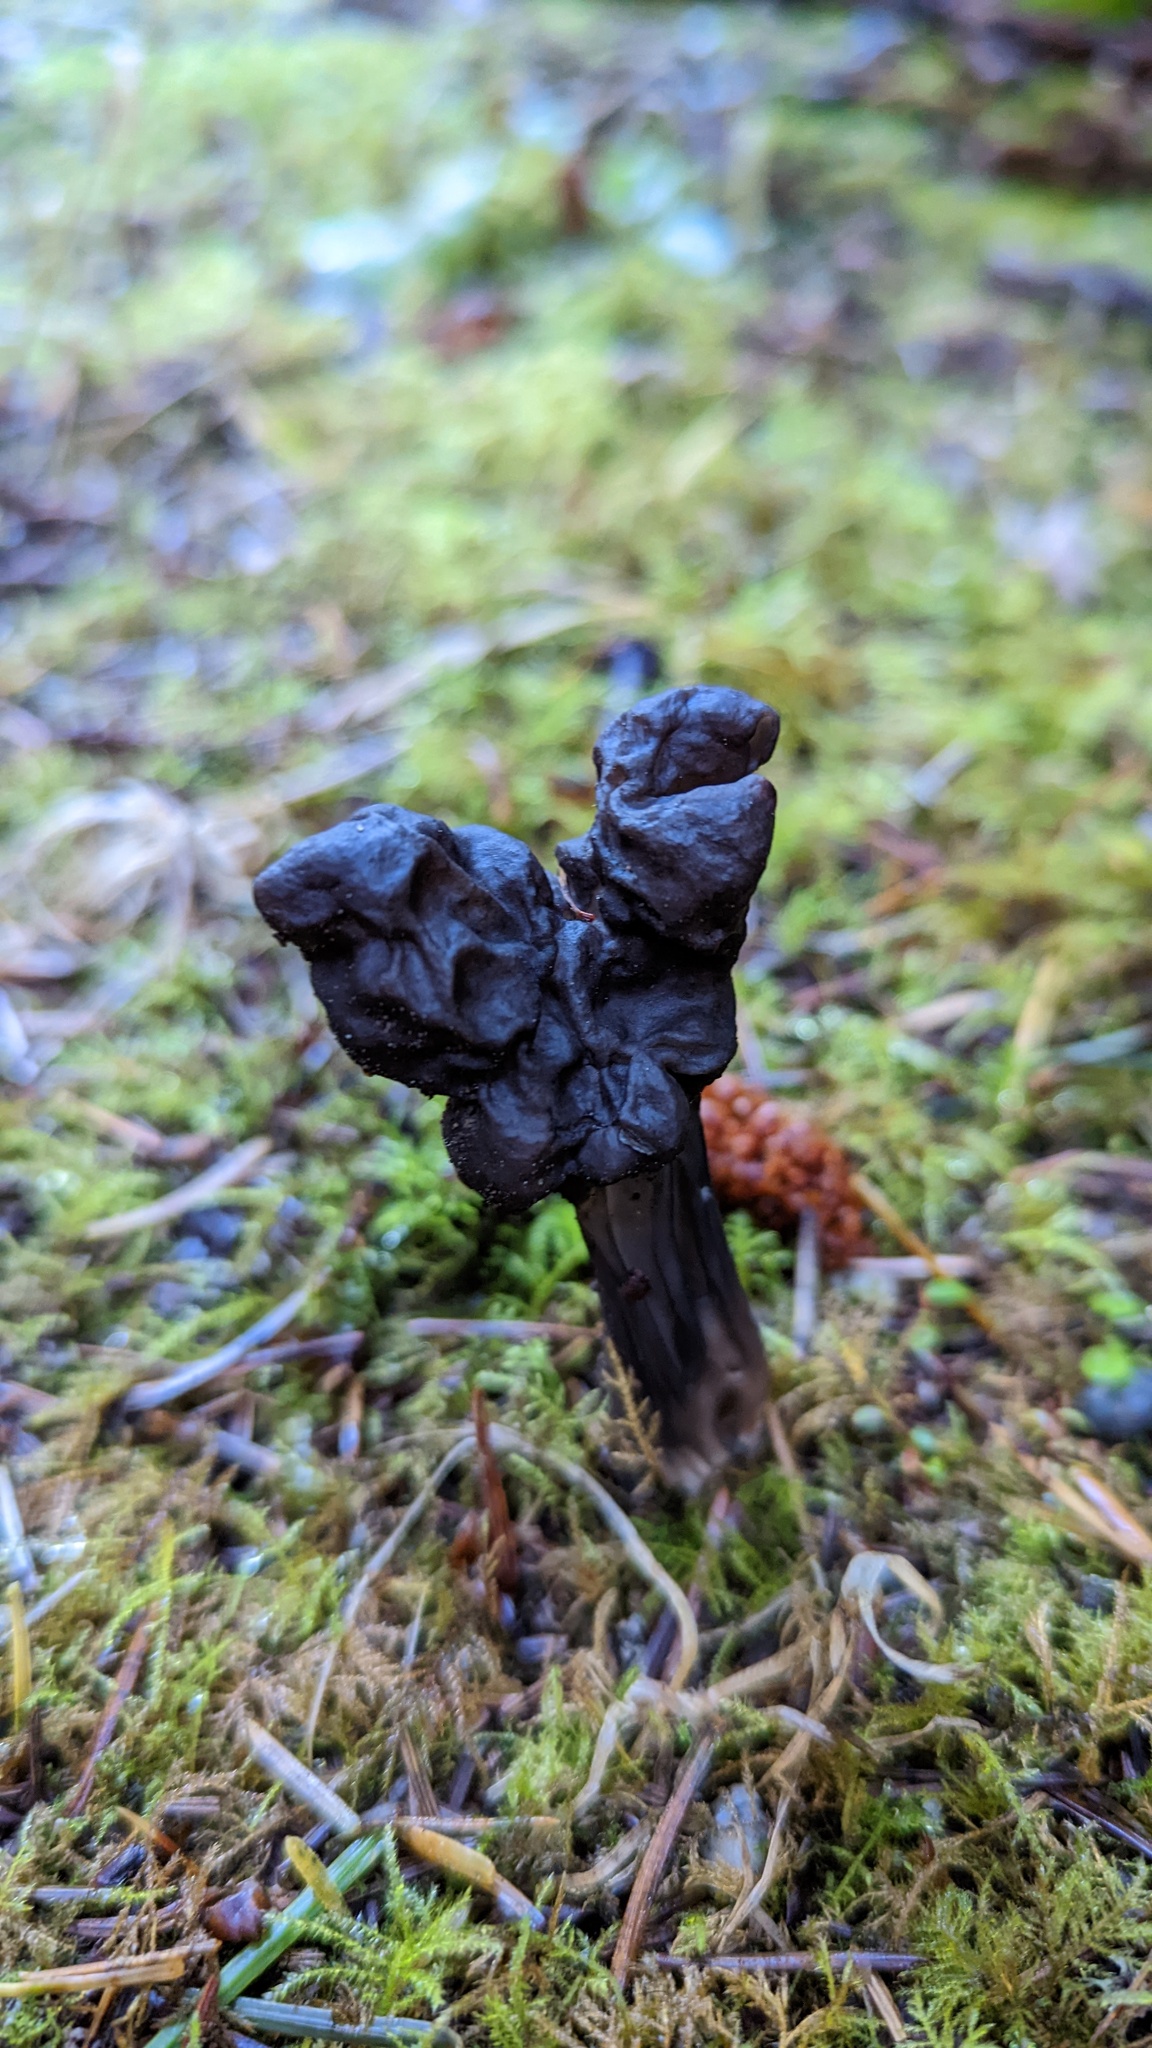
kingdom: Fungi
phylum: Ascomycota
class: Pezizomycetes
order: Pezizales
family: Helvellaceae
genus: Helvella
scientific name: Helvella vespertina
